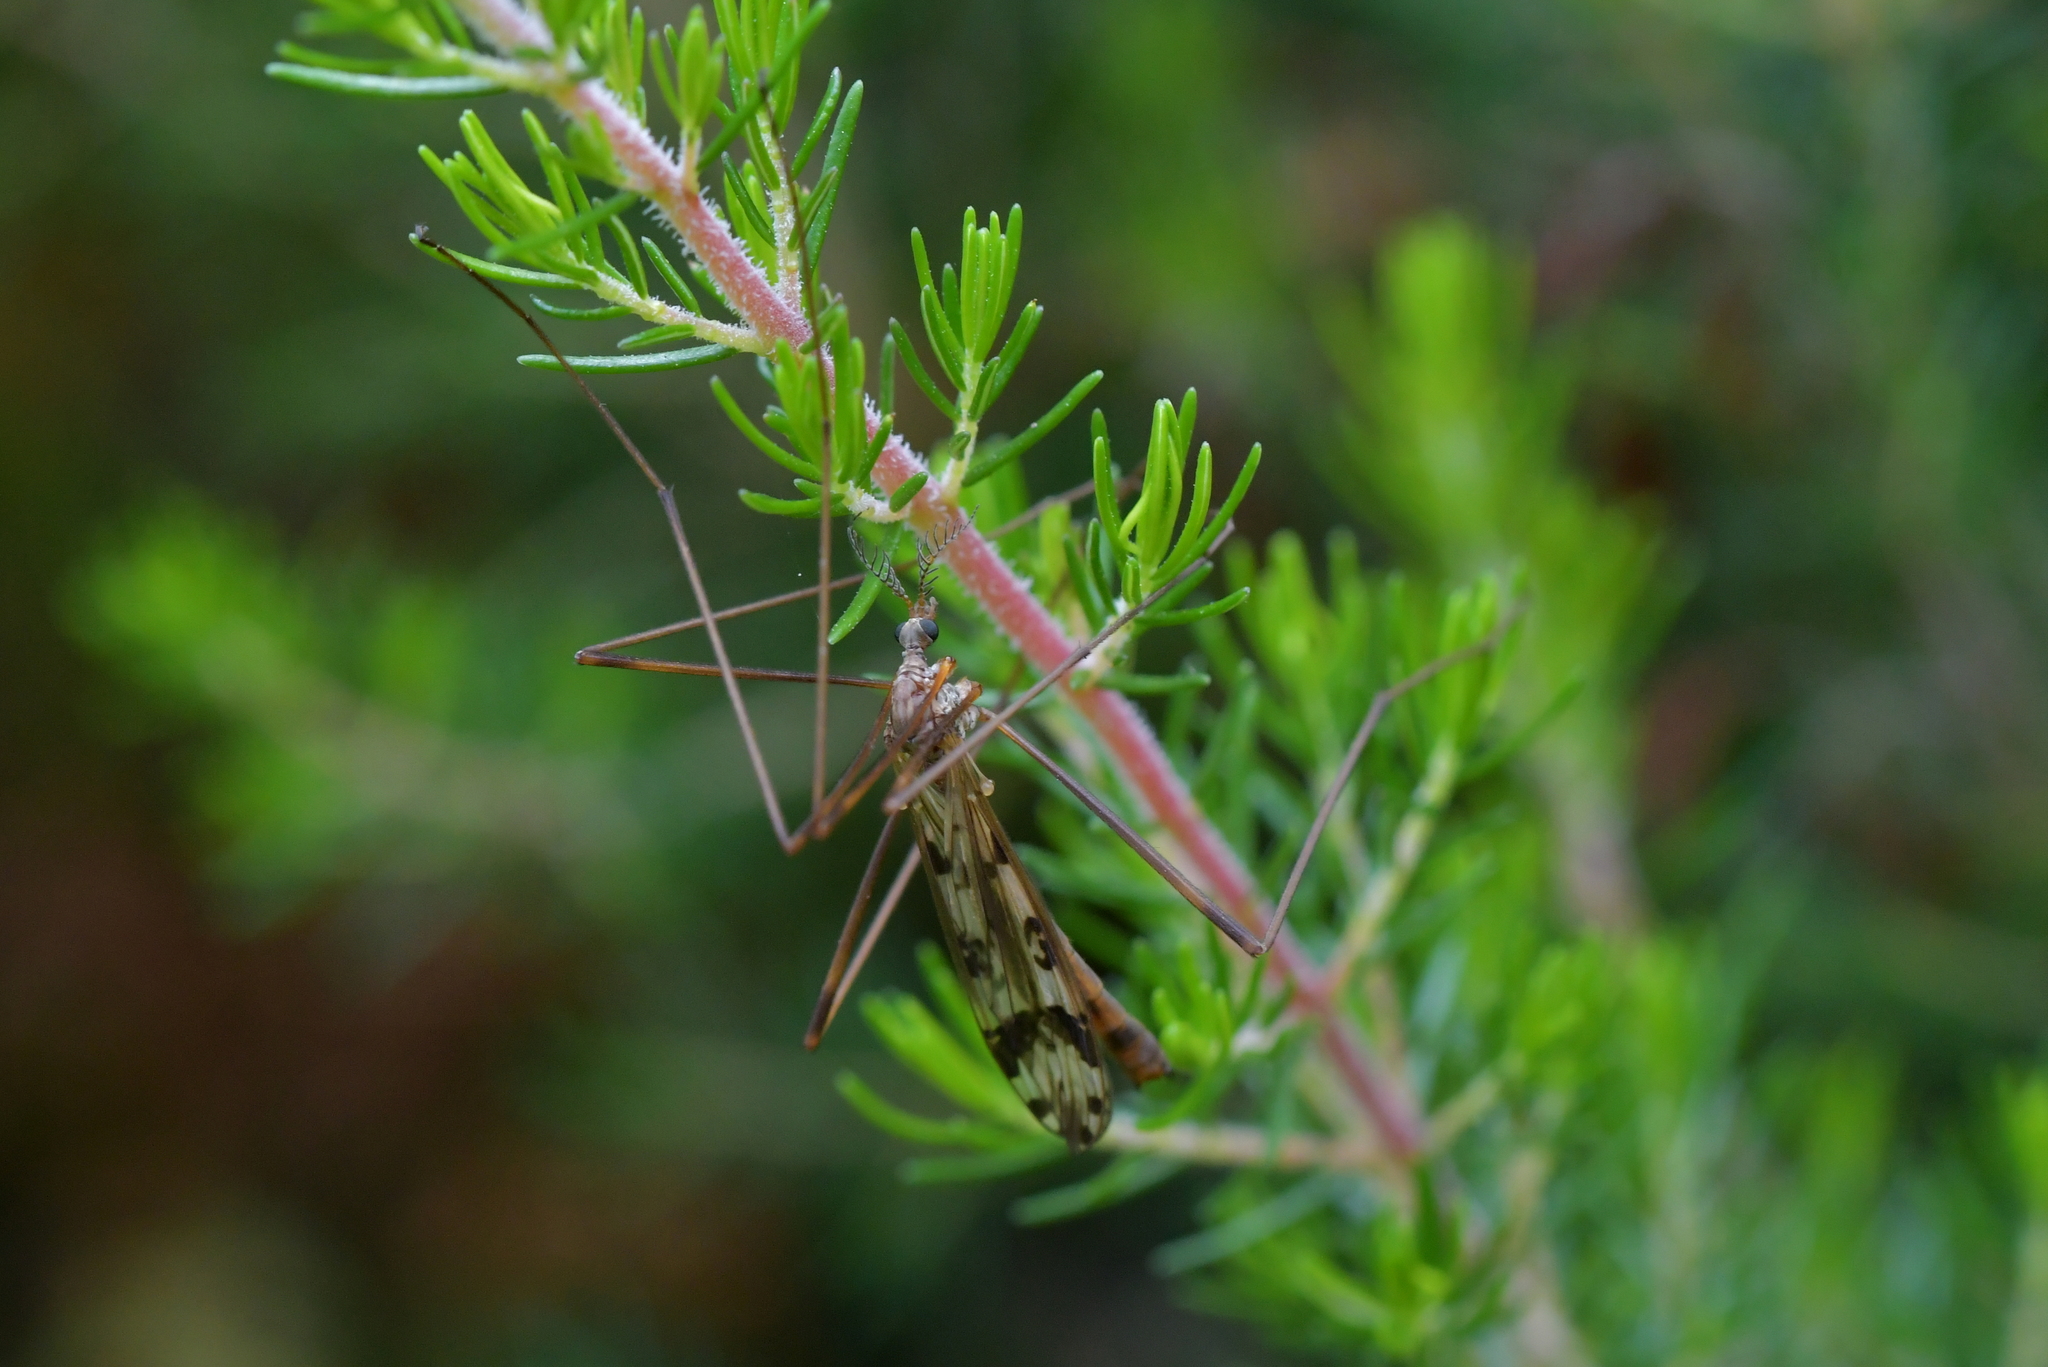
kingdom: Animalia
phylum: Arthropoda
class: Insecta
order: Diptera
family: Limoniidae
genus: Gynoplistia
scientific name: Gynoplistia magnifica
